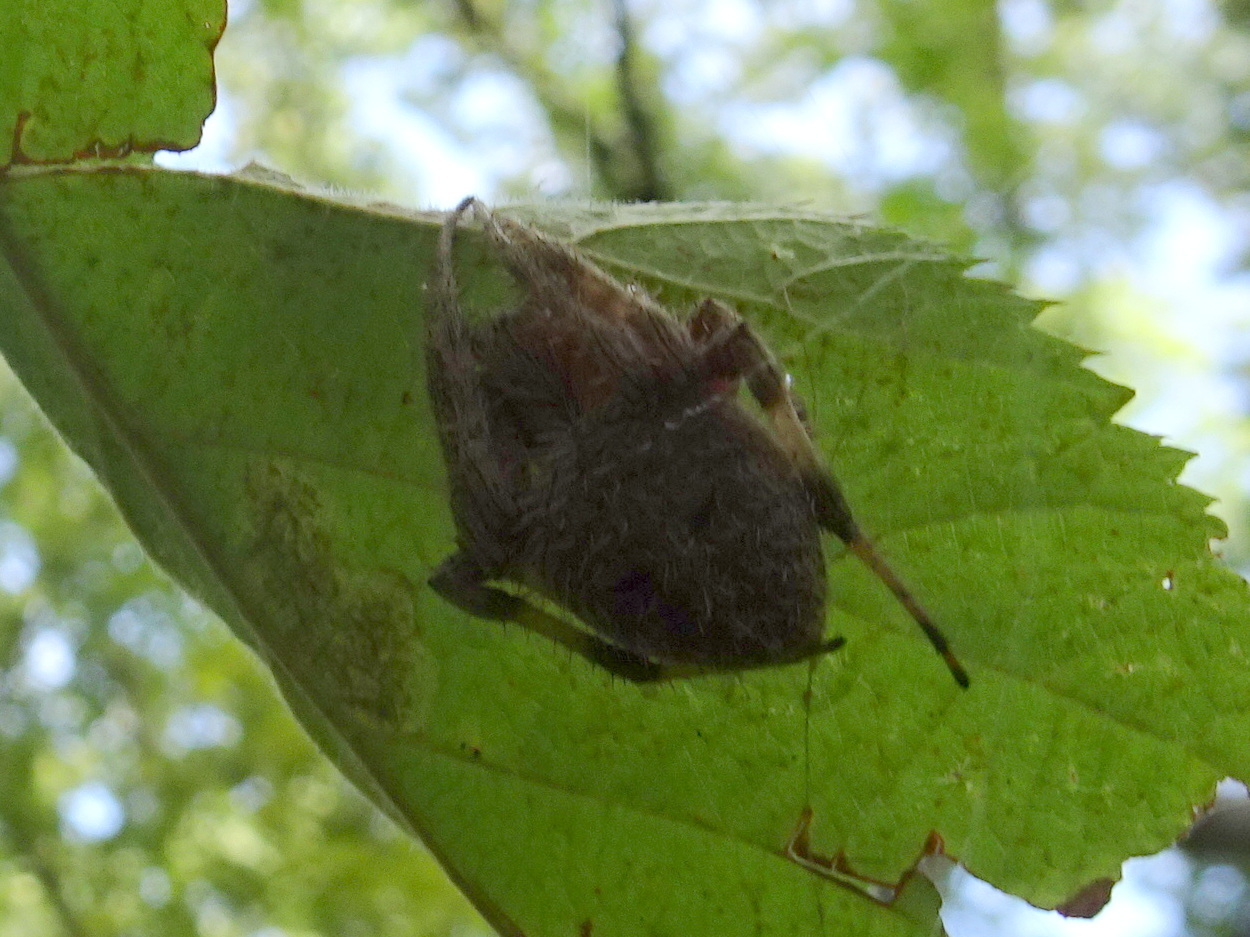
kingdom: Animalia
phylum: Arthropoda
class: Arachnida
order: Araneae
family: Araneidae
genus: Neoscona
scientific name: Neoscona crucifera
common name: Spotted orbweaver
